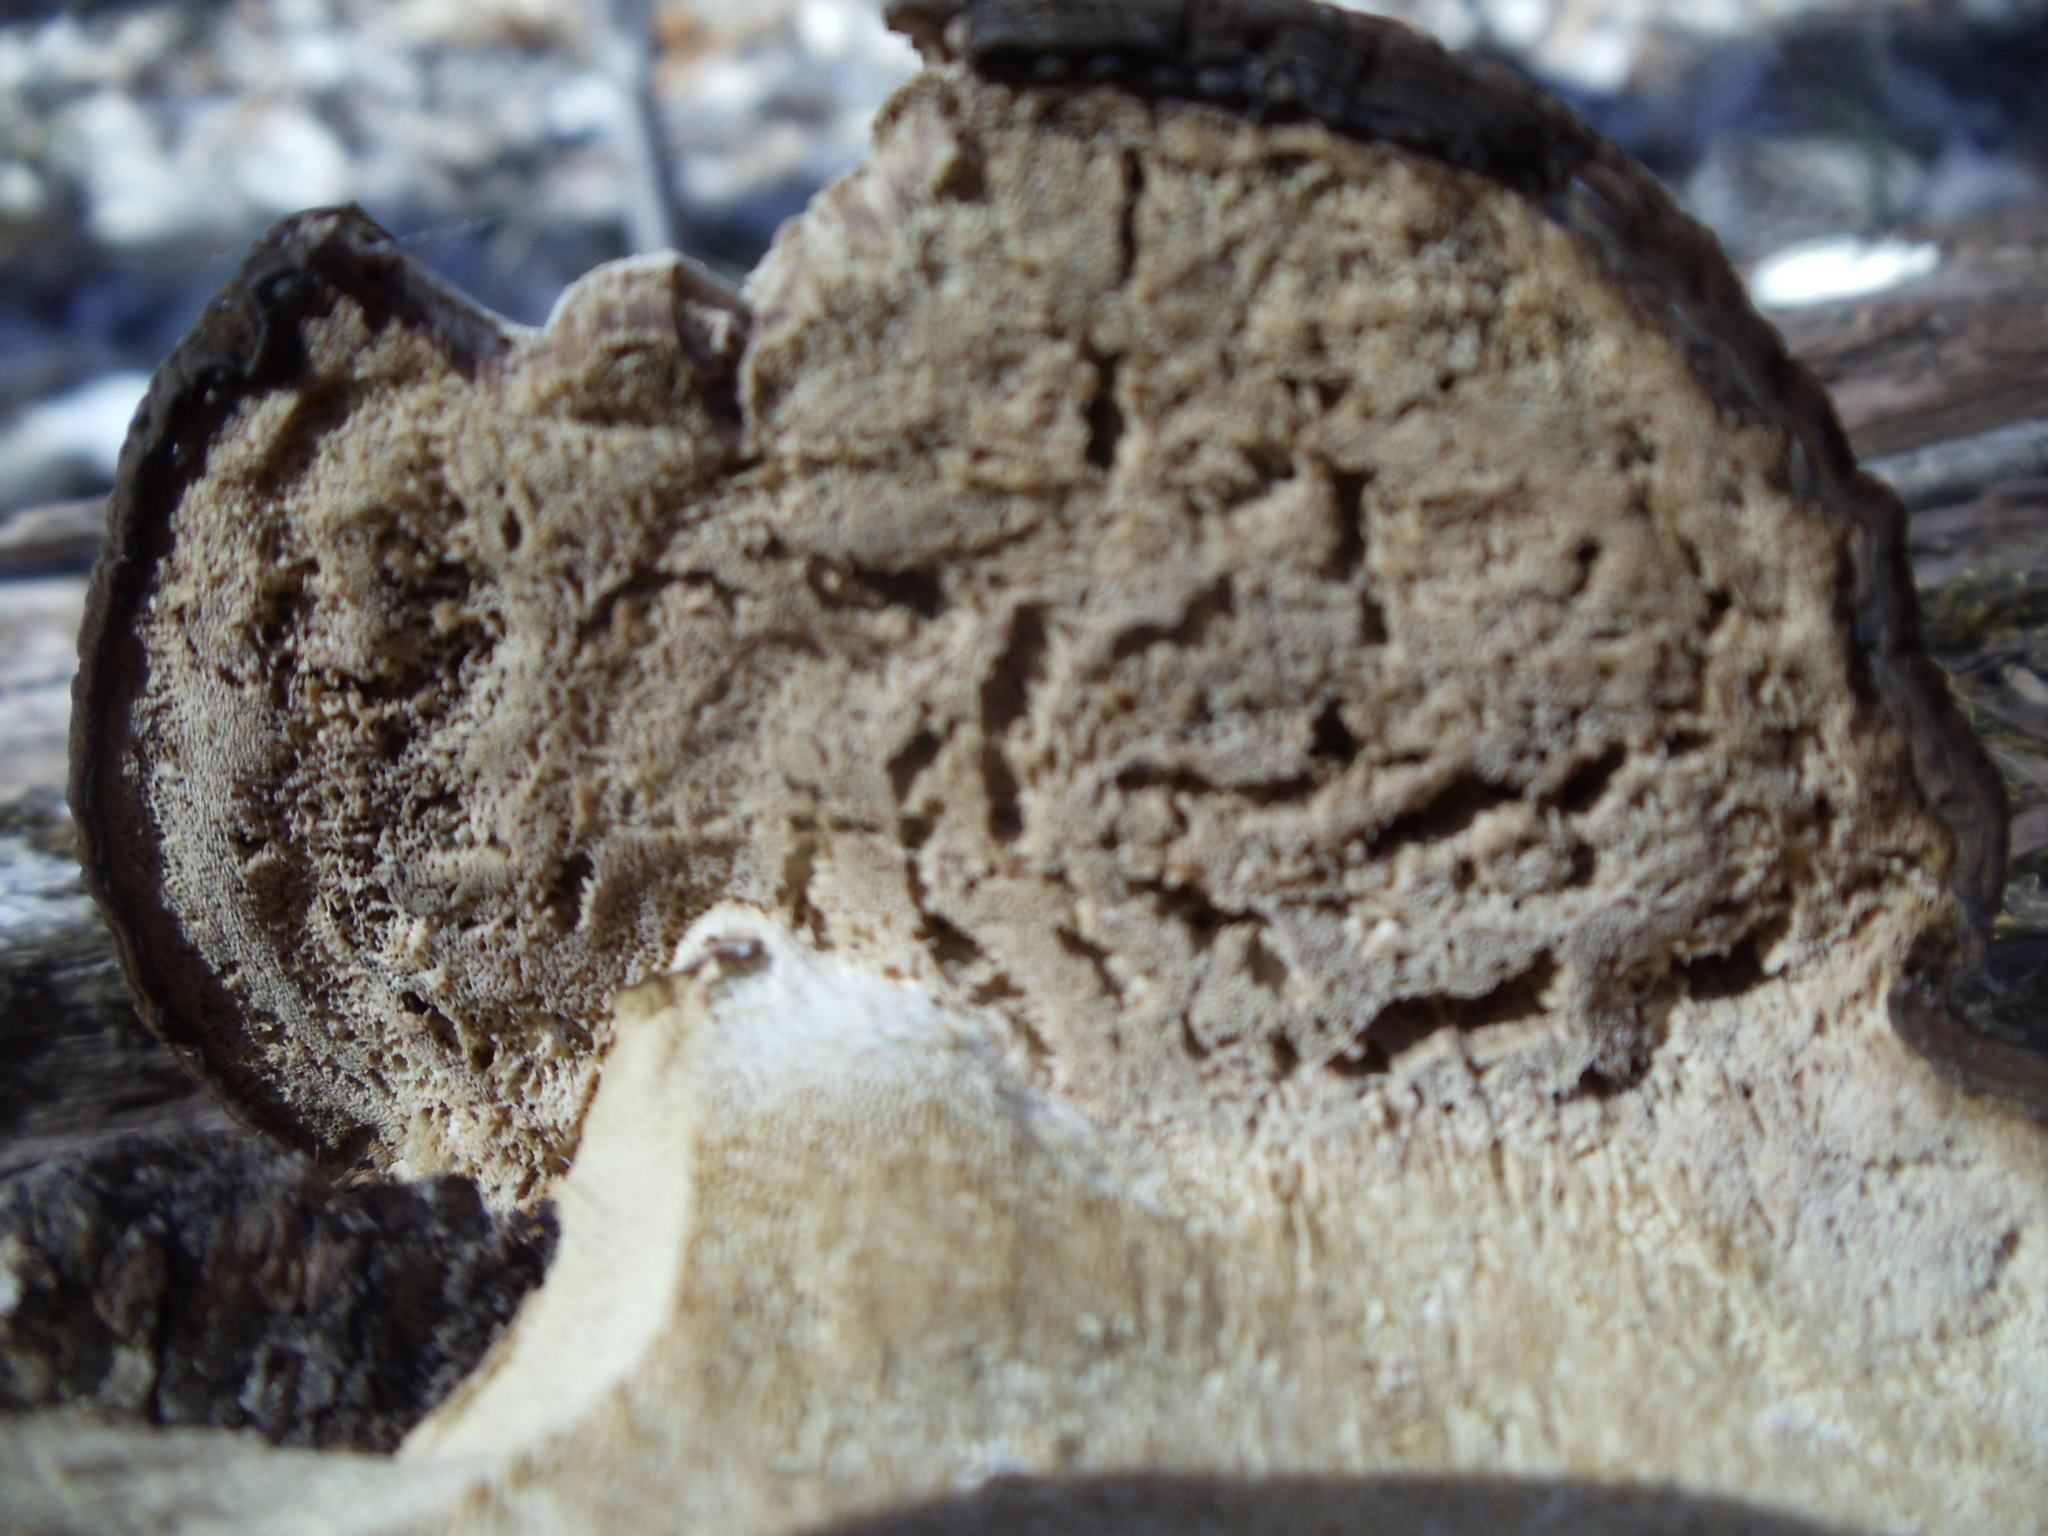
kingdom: Fungi
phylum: Basidiomycota
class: Agaricomycetes
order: Polyporales
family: Ischnodermataceae
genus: Ischnoderma
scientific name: Ischnoderma resinosum
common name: Resinous polypore
